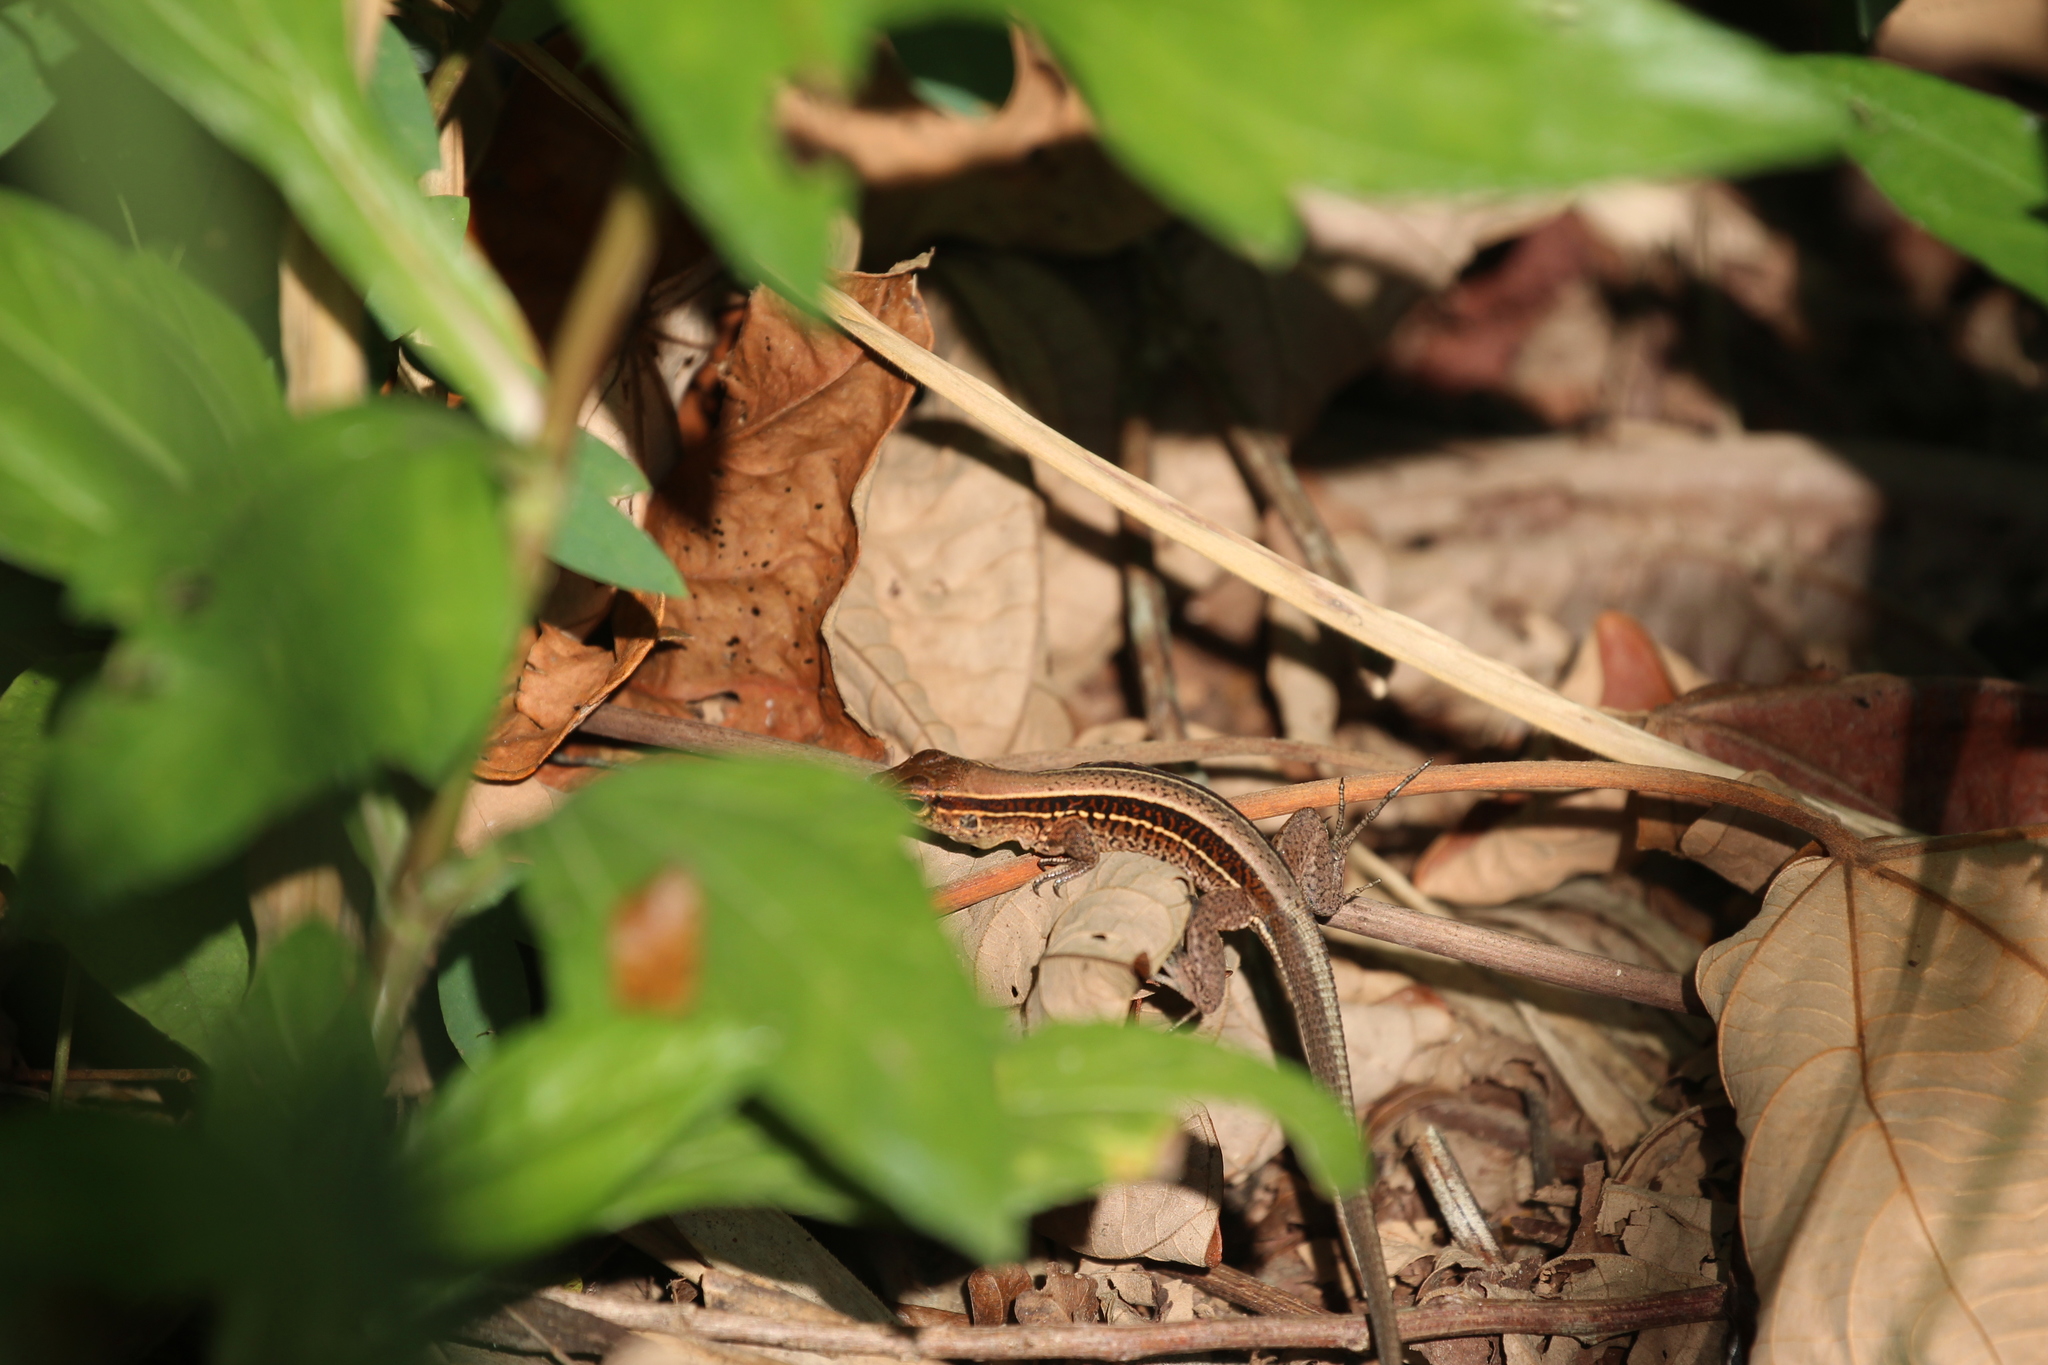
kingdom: Animalia
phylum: Chordata
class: Squamata
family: Teiidae
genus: Holcosus
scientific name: Holcosus quadrilineatus
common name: Four-lined ameiva
